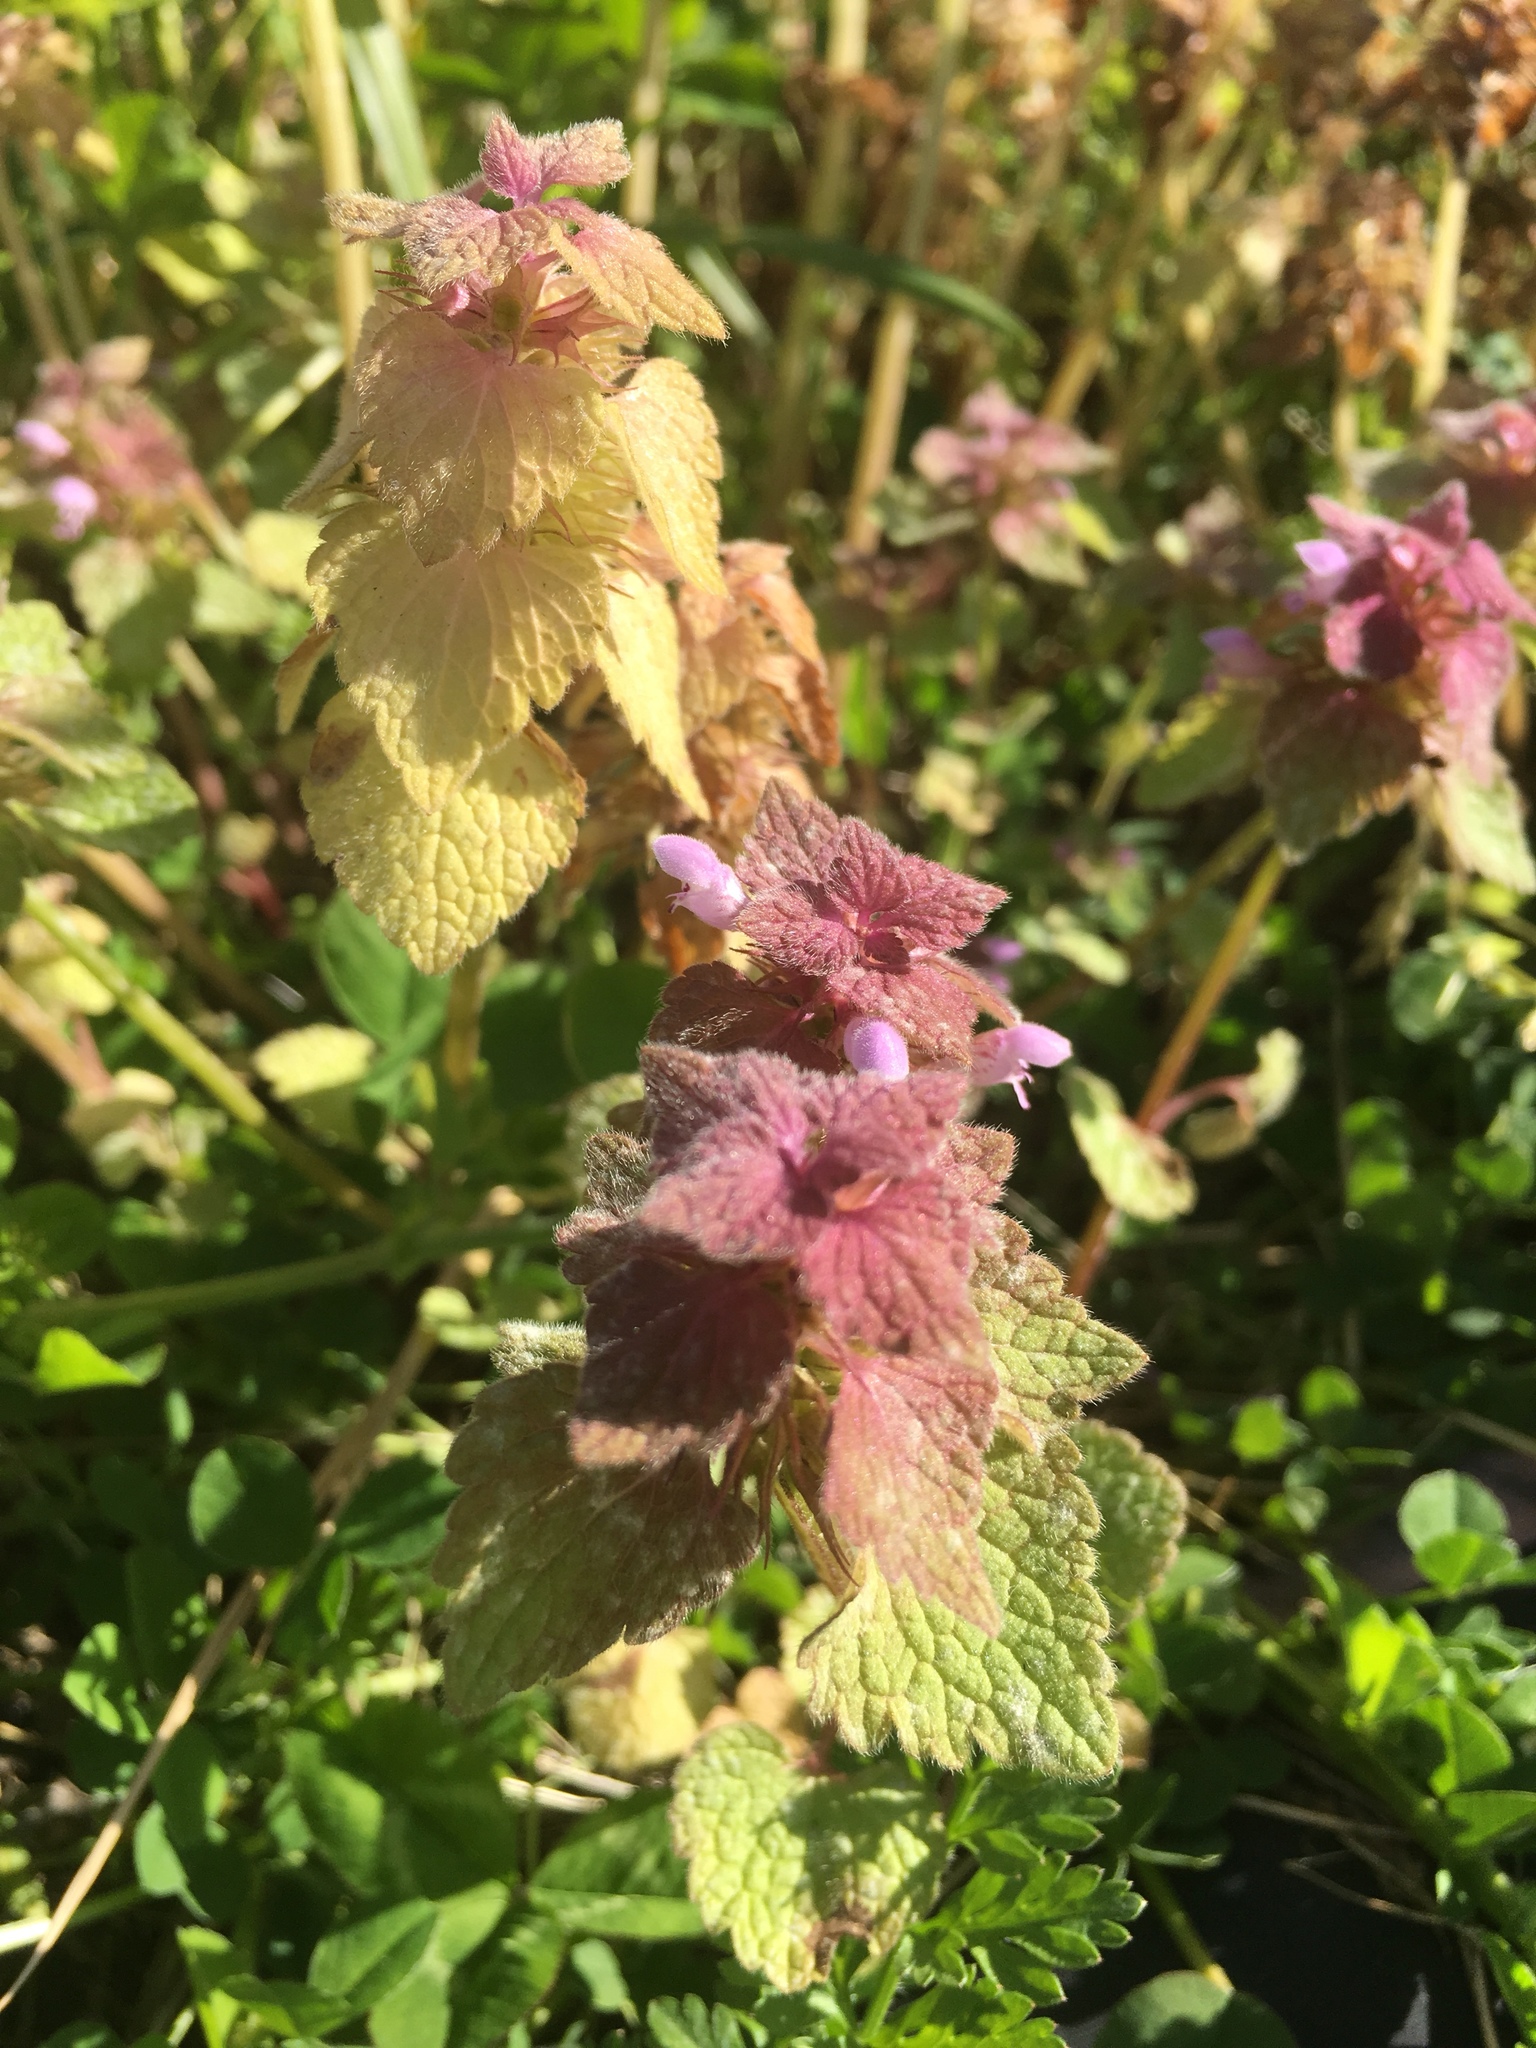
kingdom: Plantae
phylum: Tracheophyta
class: Magnoliopsida
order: Lamiales
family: Lamiaceae
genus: Lamium
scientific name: Lamium purpureum
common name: Red dead-nettle
